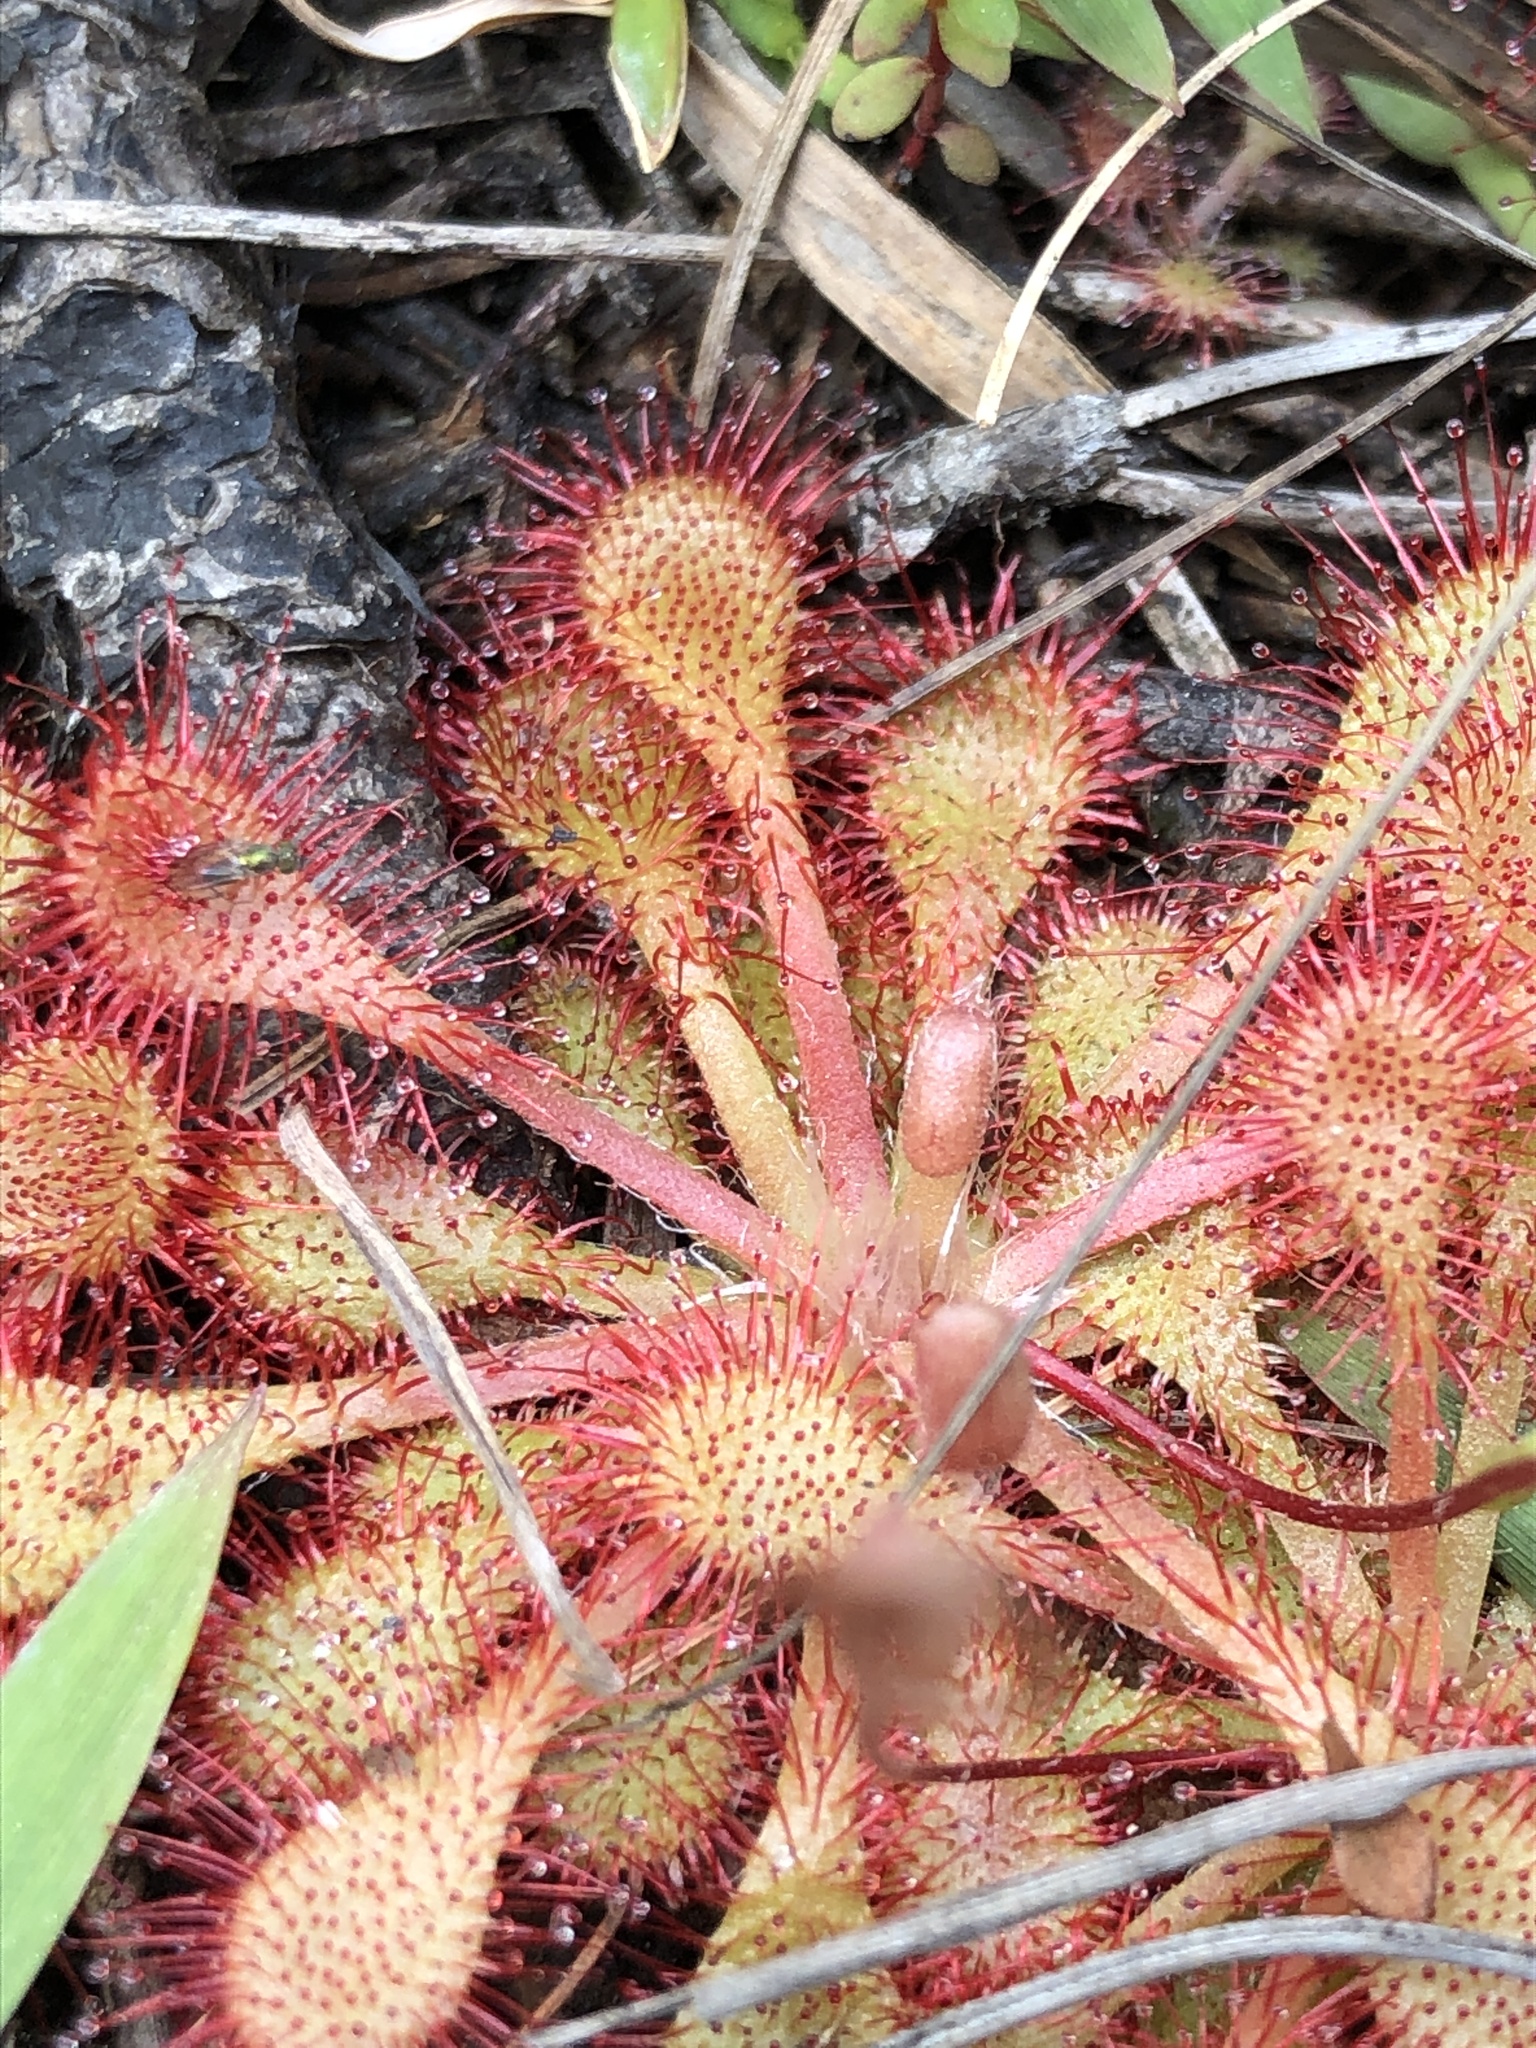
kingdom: Plantae
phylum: Tracheophyta
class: Magnoliopsida
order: Caryophyllales
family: Droseraceae
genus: Drosera
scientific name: Drosera capillaris
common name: Pink sundew
